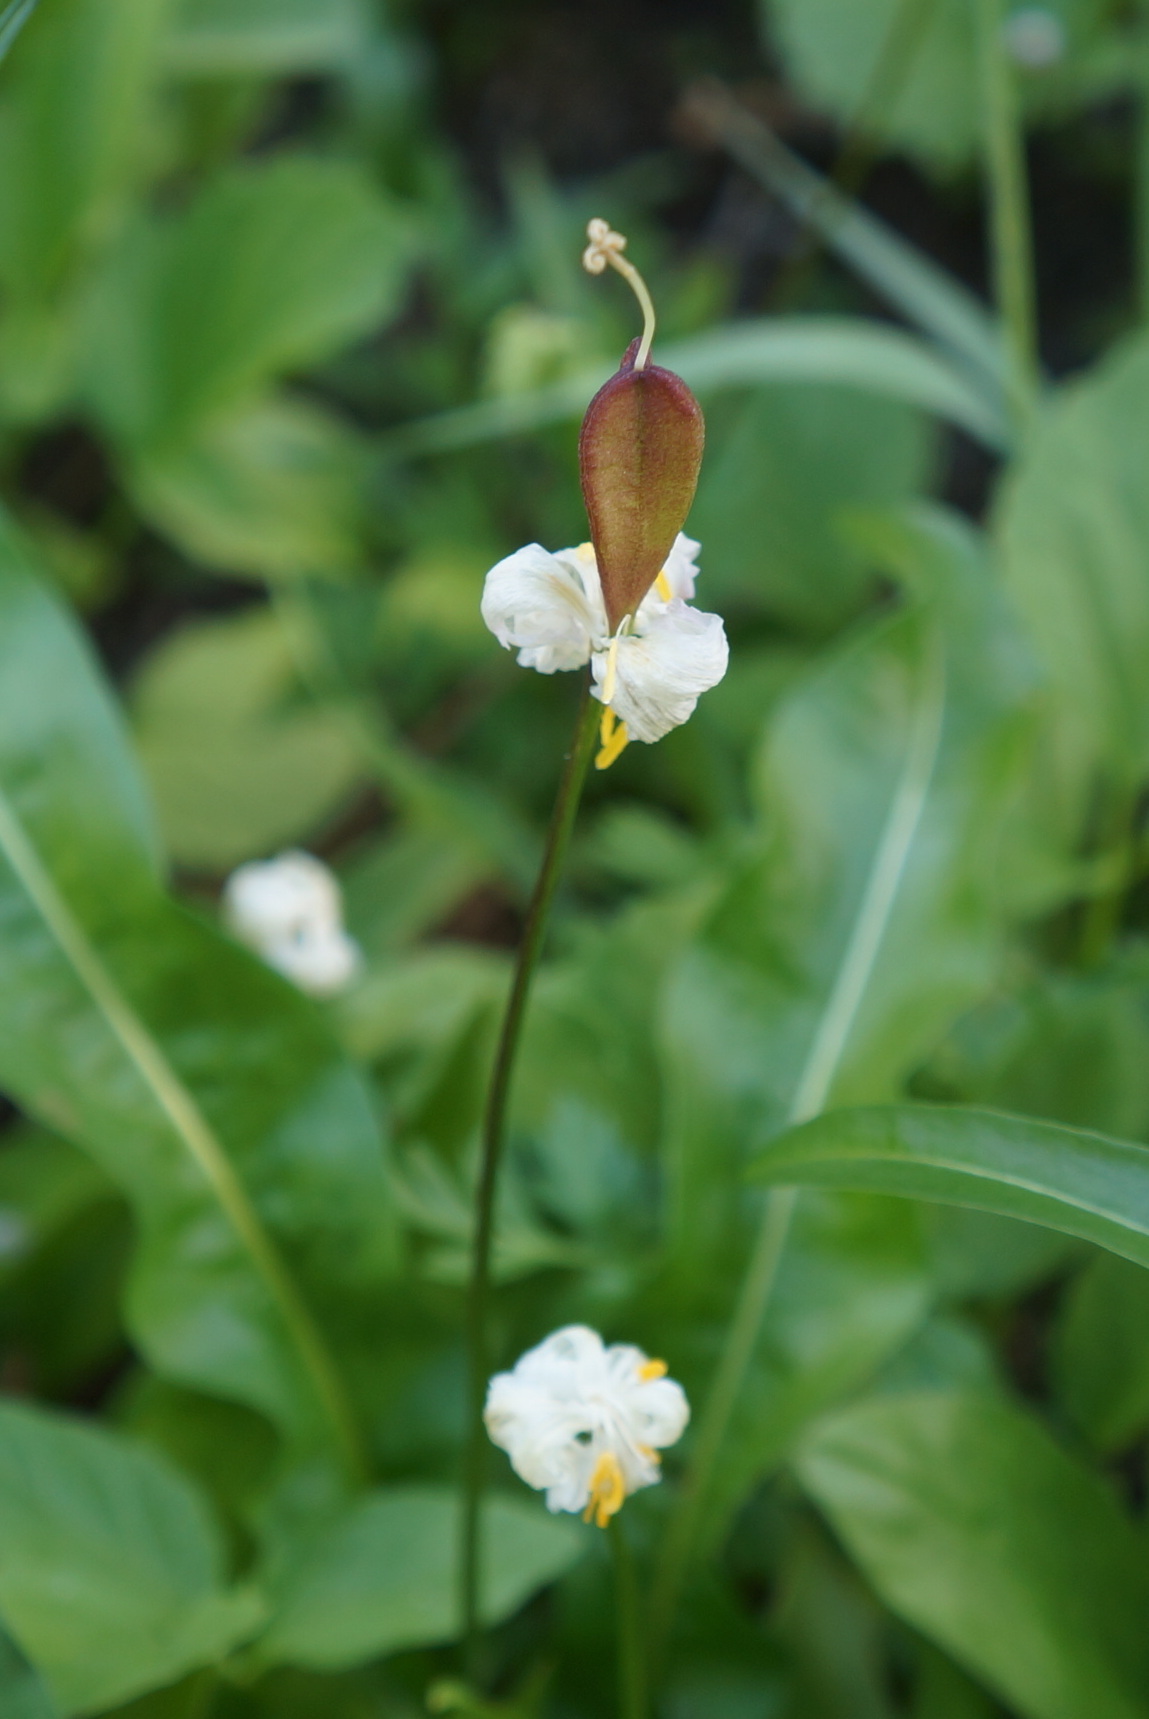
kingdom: Plantae
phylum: Tracheophyta
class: Liliopsida
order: Liliales
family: Liliaceae
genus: Erythronium
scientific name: Erythronium montanum
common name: Avalanche lily
